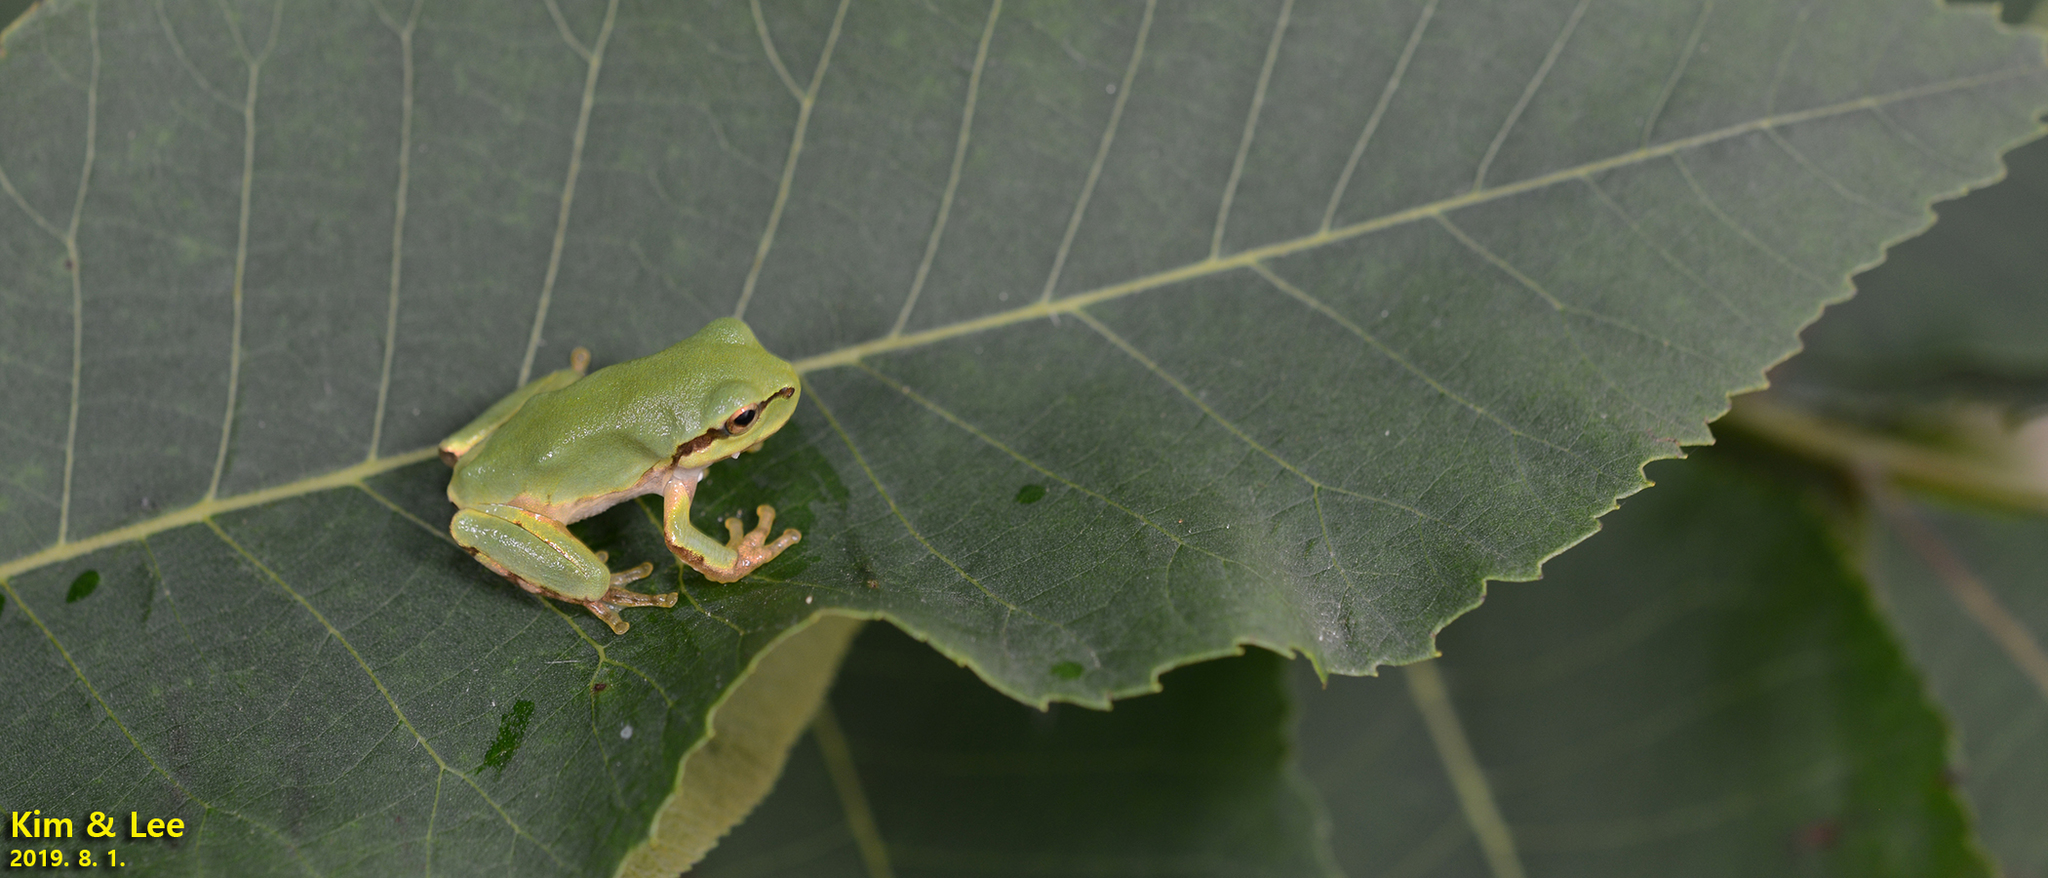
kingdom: Animalia
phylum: Chordata
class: Amphibia
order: Anura
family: Hylidae
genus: Dryophytes
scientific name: Dryophytes japonicus
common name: Japanese treefrog
